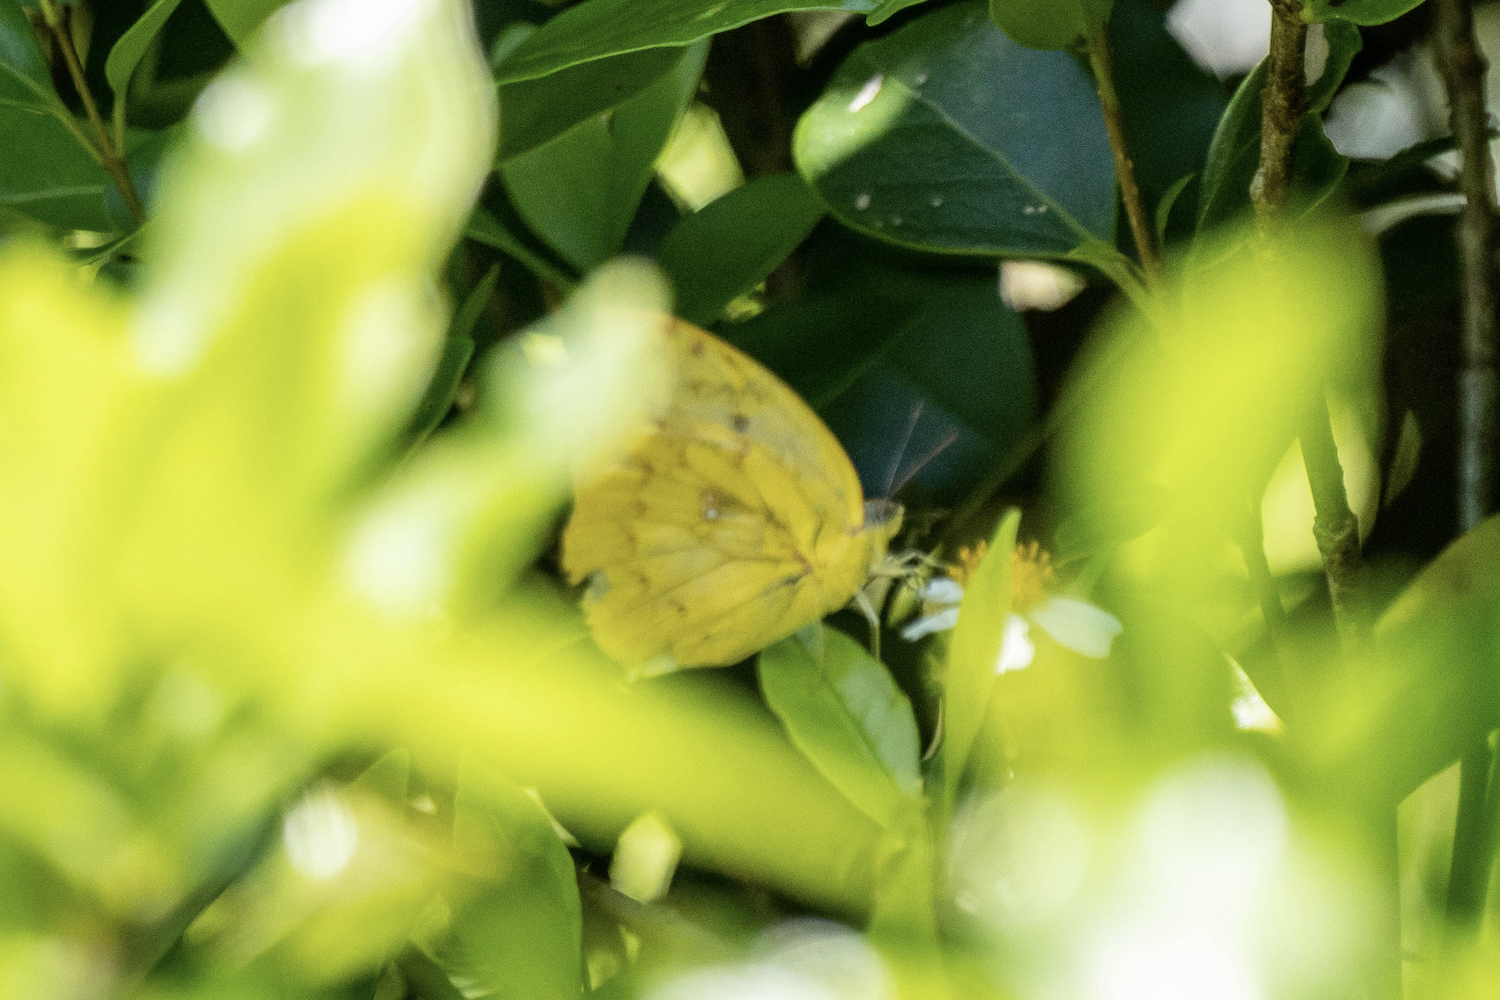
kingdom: Animalia
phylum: Arthropoda
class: Insecta
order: Lepidoptera
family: Pieridae
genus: Catopsilia
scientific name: Catopsilia pomona
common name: Common emigrant
